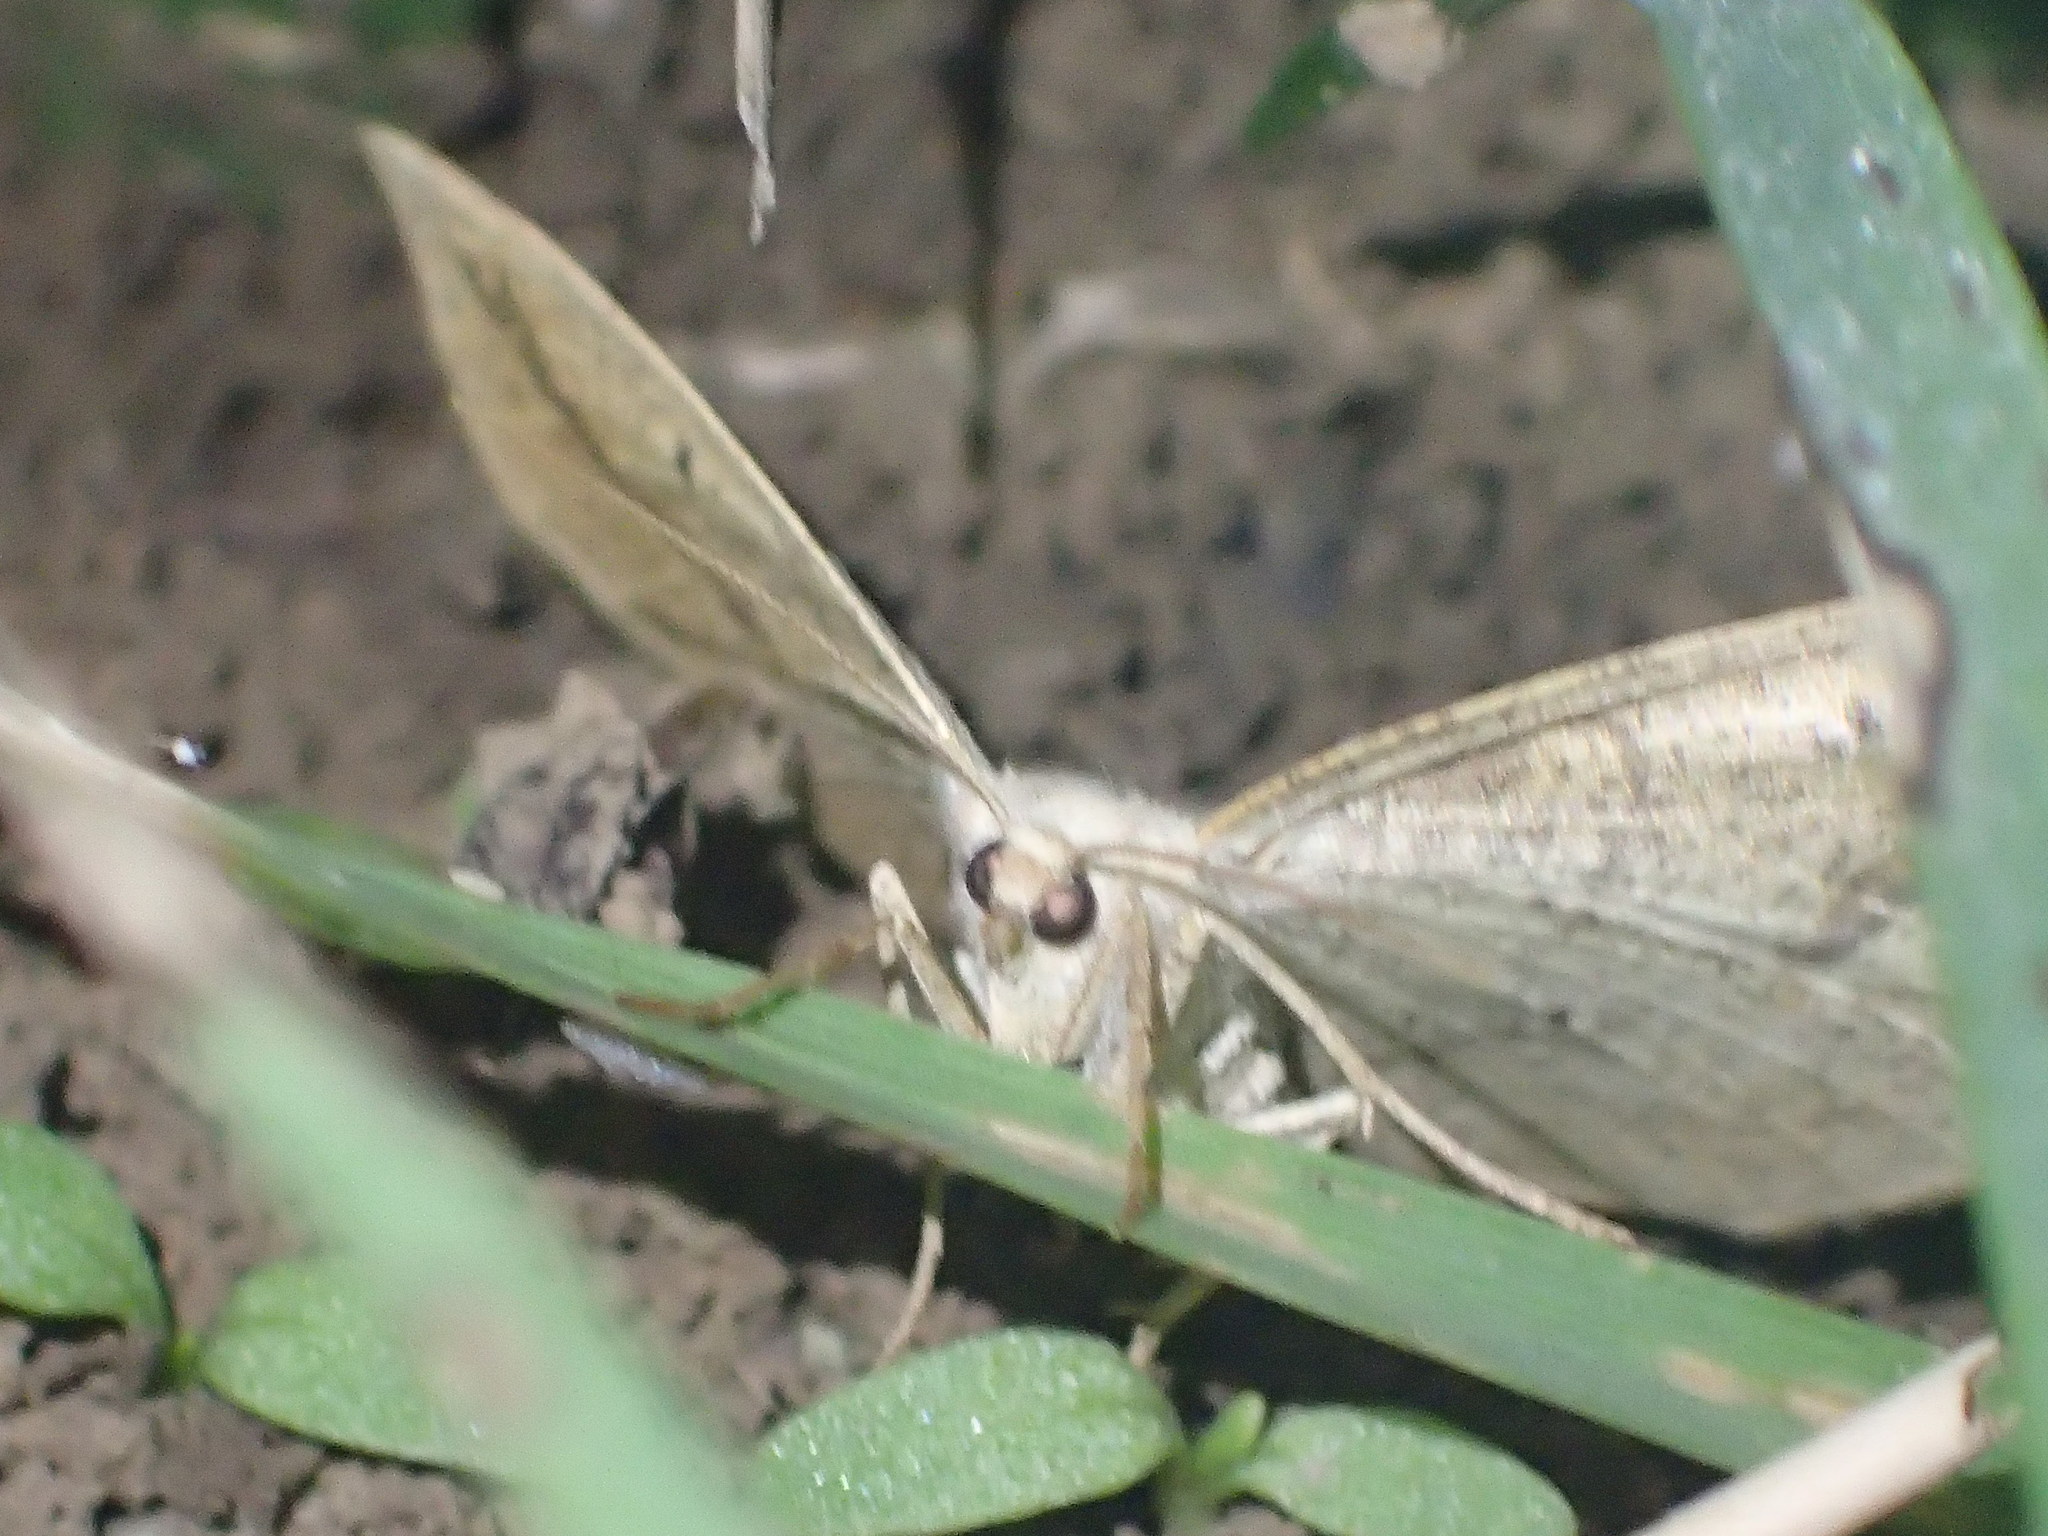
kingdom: Animalia
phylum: Arthropoda
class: Insecta
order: Lepidoptera
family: Geometridae
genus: Eusarca
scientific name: Eusarca confusaria
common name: Confused eusarca
